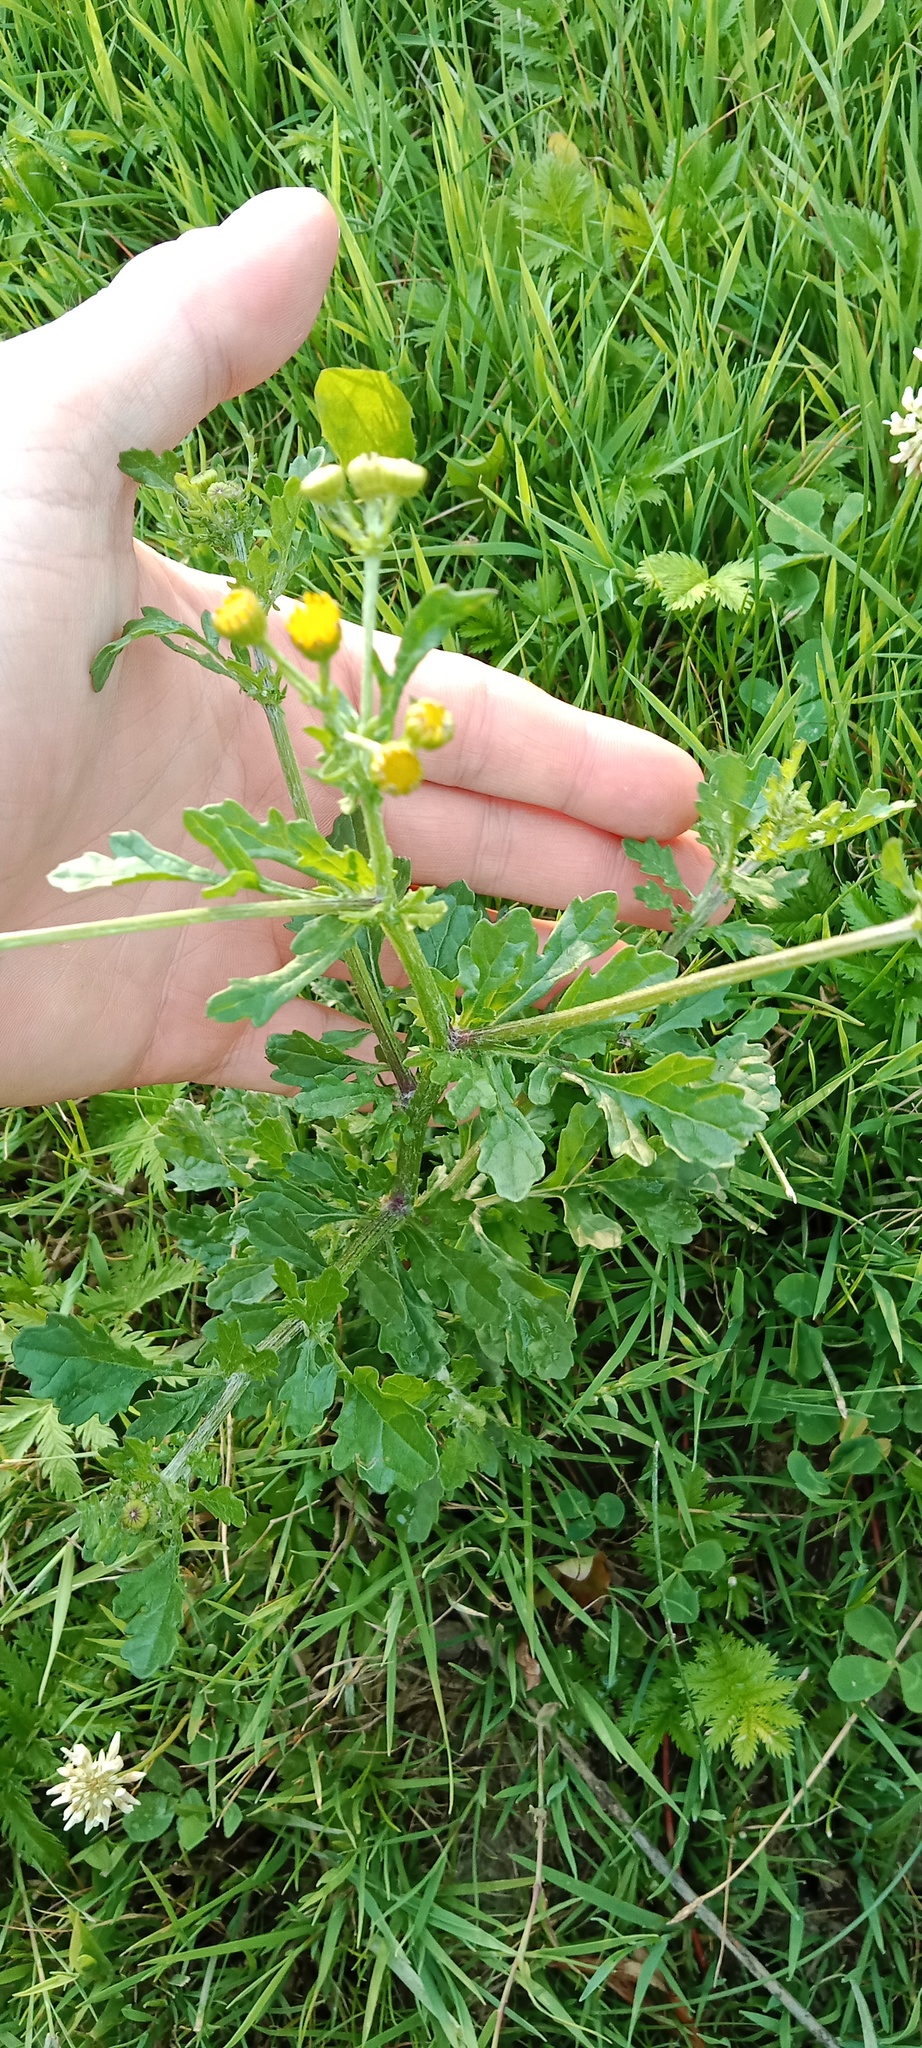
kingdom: Plantae
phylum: Tracheophyta
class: Magnoliopsida
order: Asterales
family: Asteraceae
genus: Jacobaea
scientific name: Jacobaea vulgaris
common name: Stinking willie
